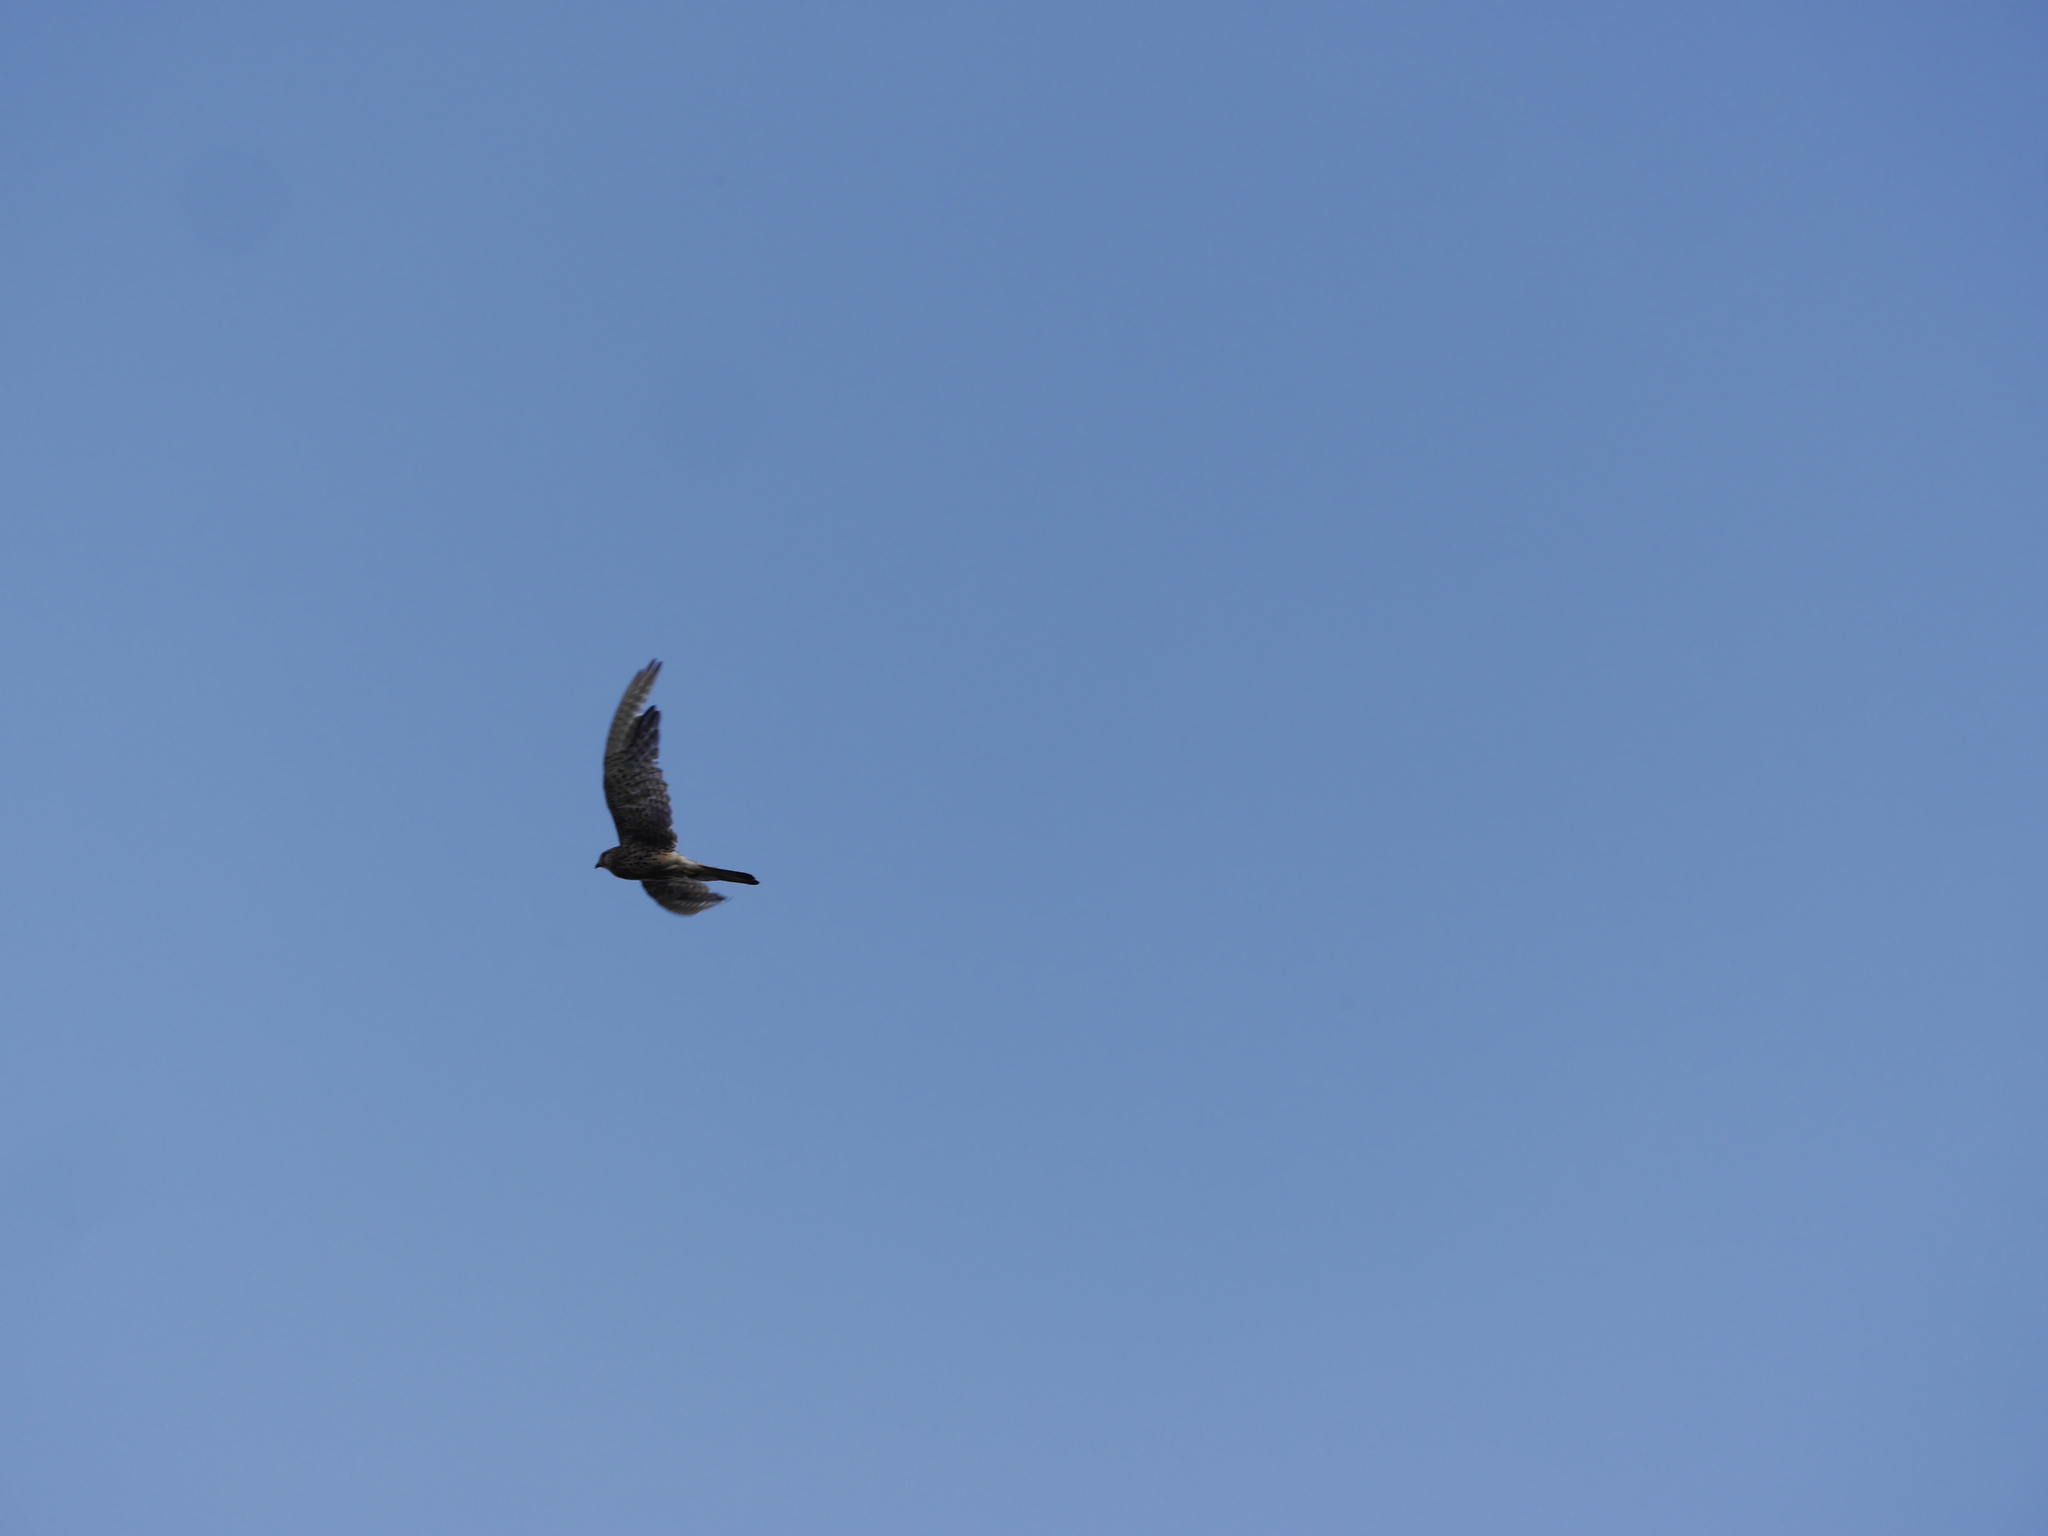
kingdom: Animalia
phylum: Chordata
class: Aves
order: Falconiformes
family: Falconidae
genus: Falco
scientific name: Falco tinnunculus
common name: Common kestrel
